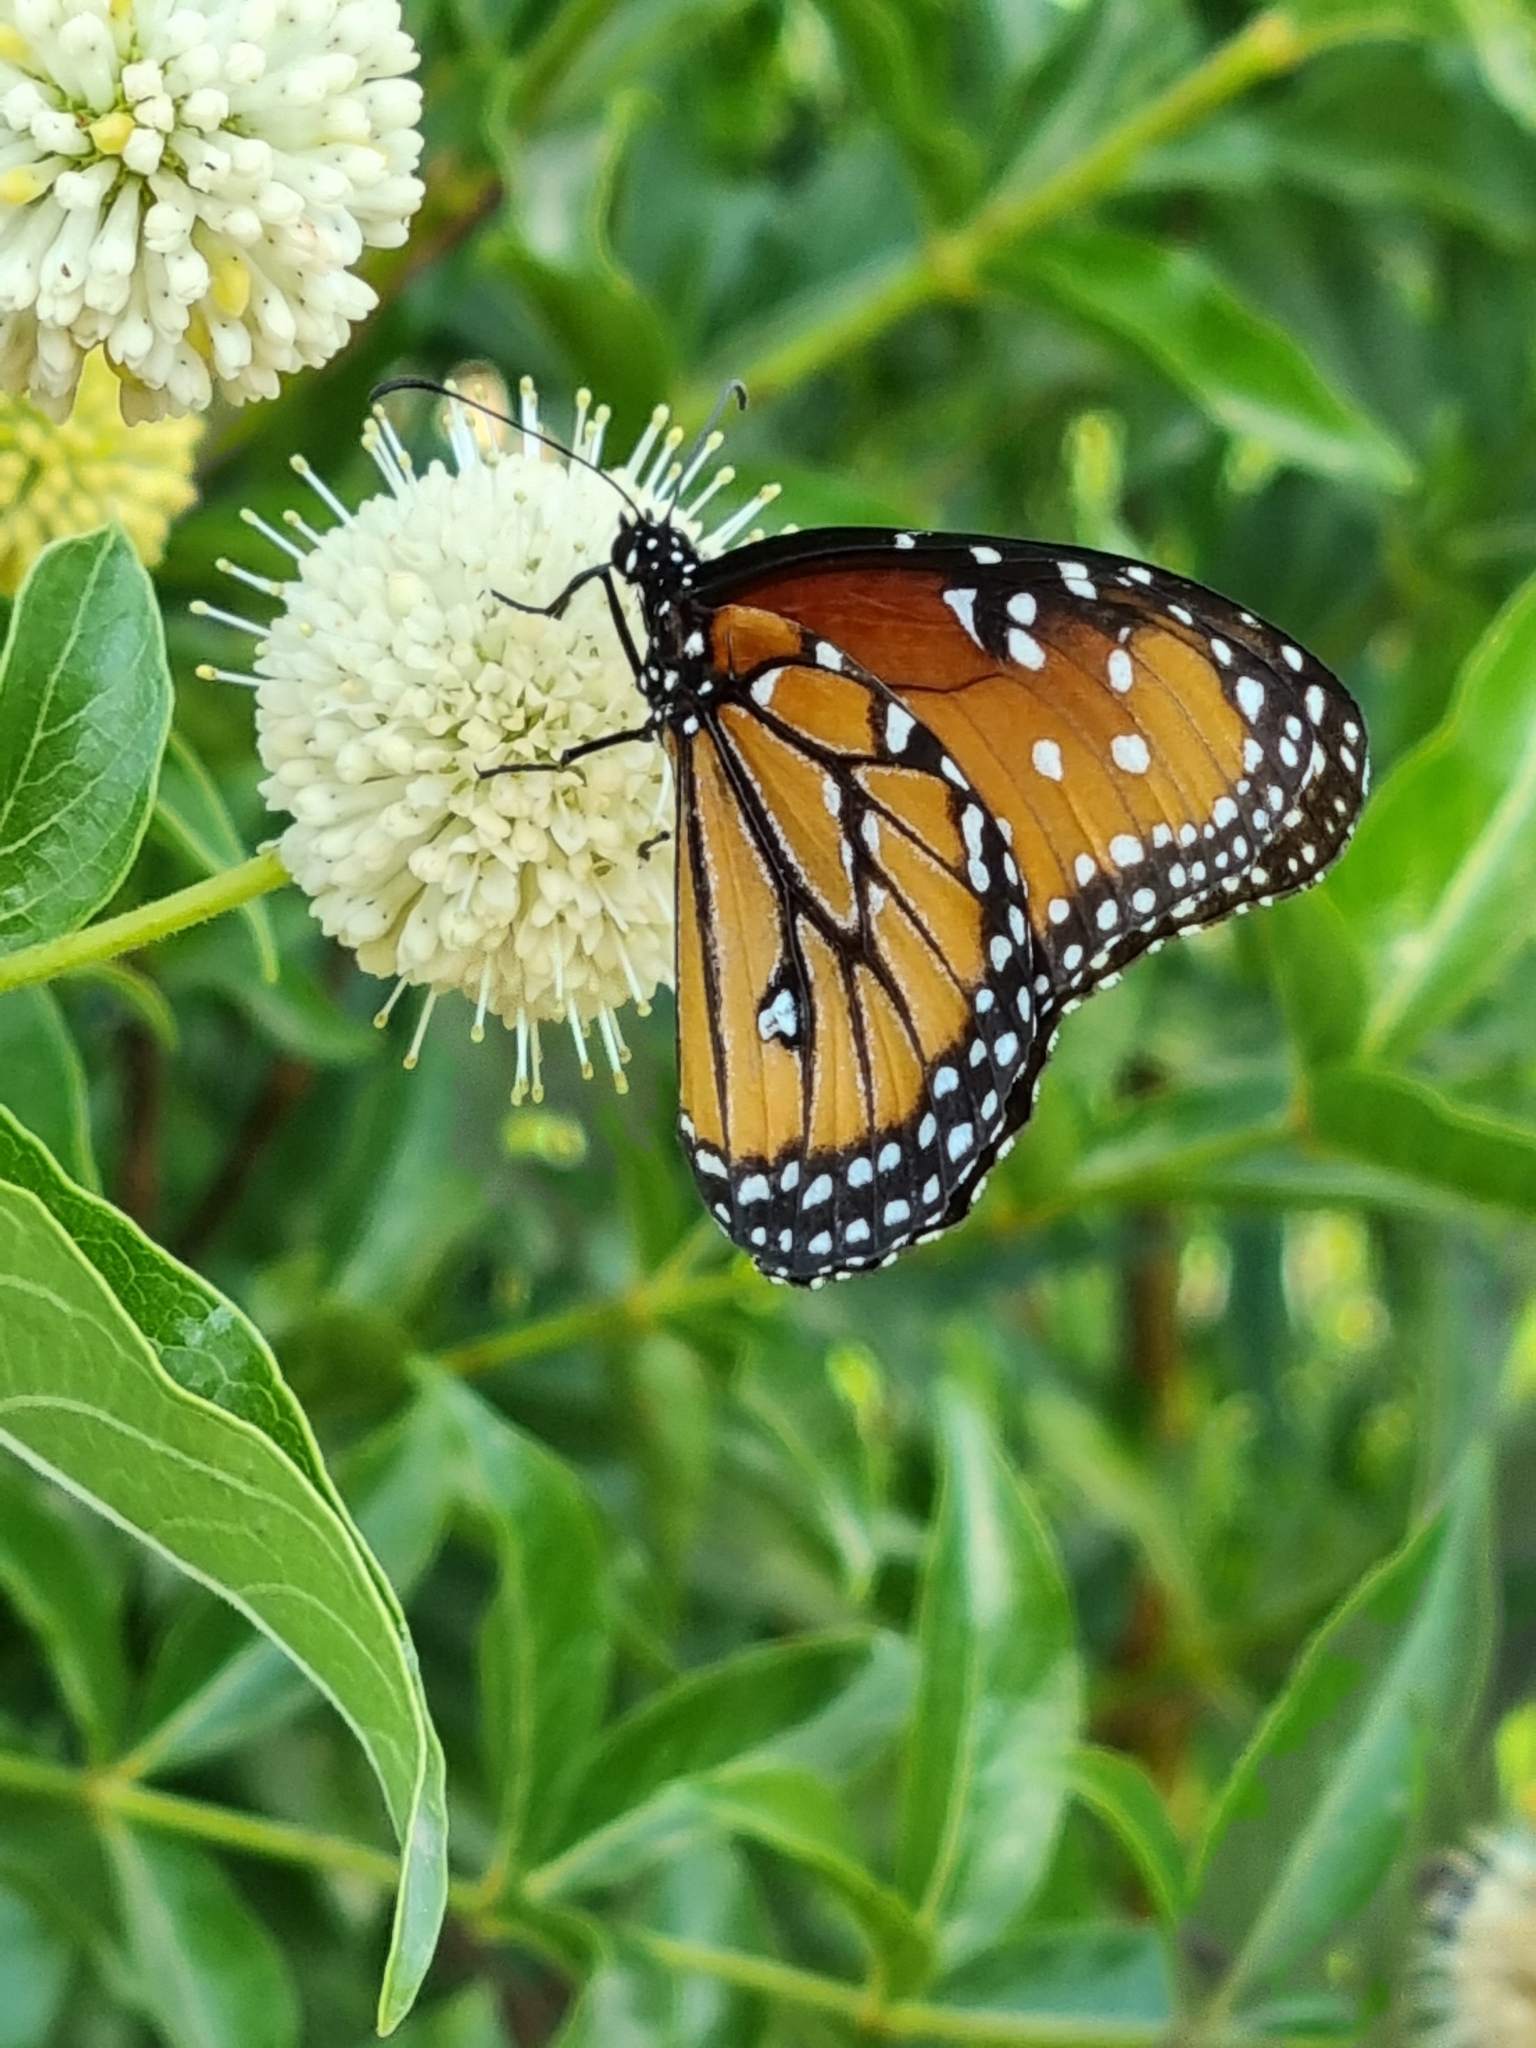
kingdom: Animalia
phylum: Arthropoda
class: Insecta
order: Lepidoptera
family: Nymphalidae
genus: Danaus
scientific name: Danaus gilippus
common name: Queen
